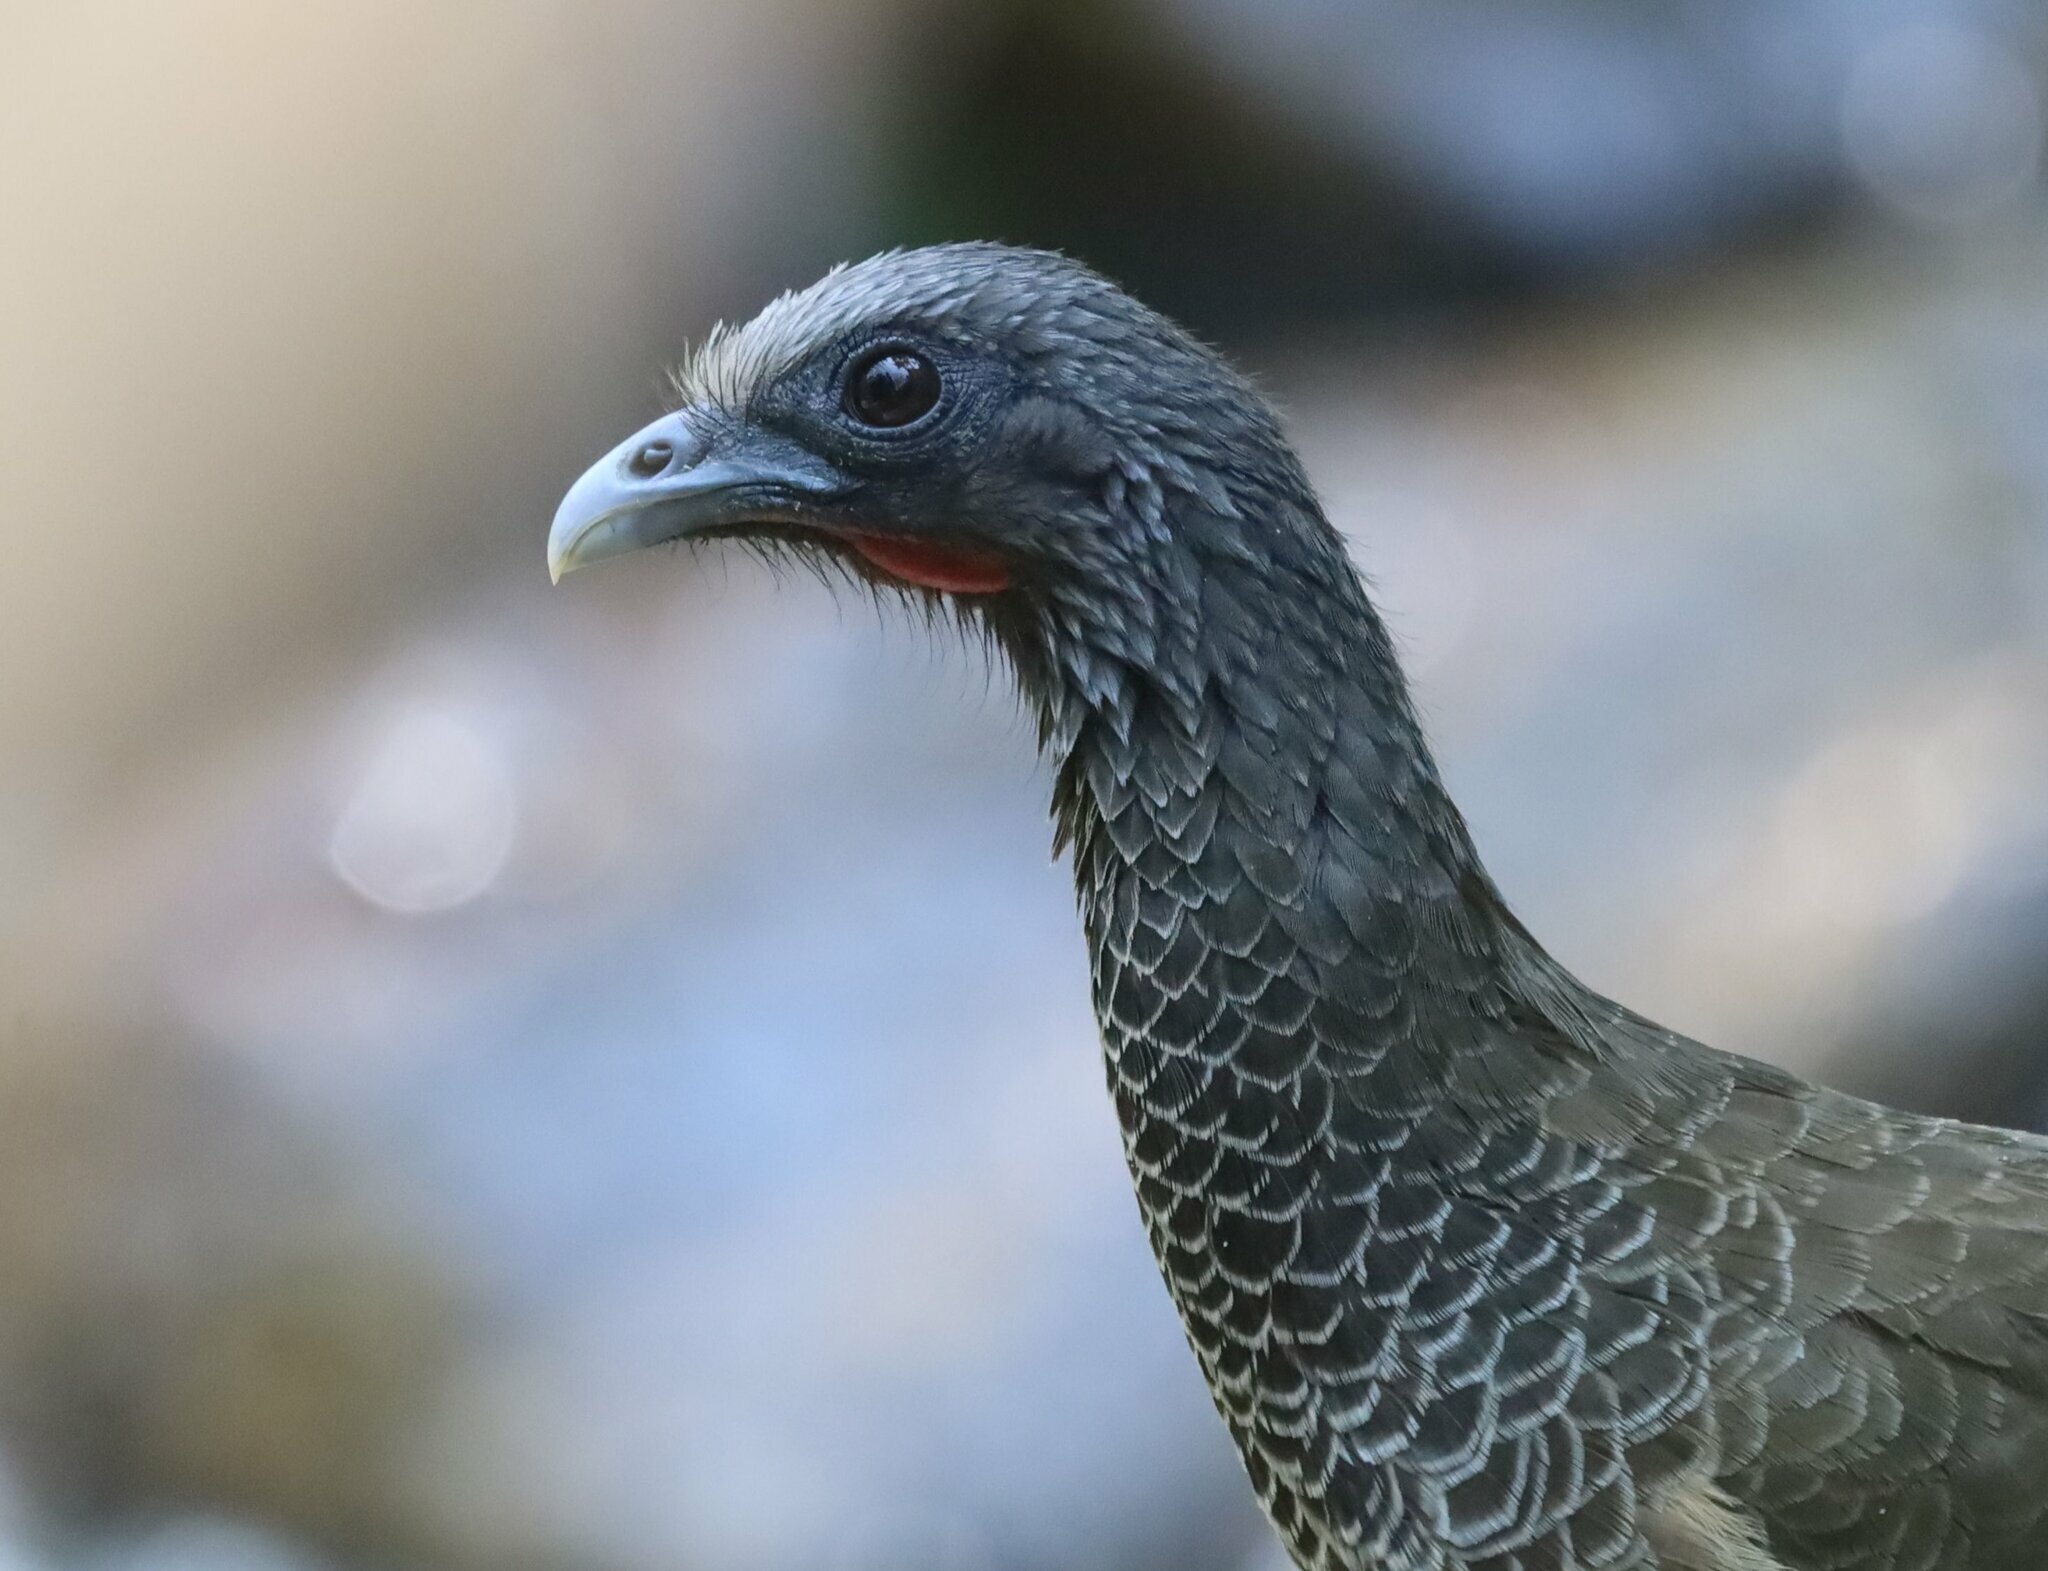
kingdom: Animalia
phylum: Chordata
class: Aves
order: Galliformes
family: Cracidae
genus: Ortalis
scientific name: Ortalis columbiana
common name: Colombian chachalaca
